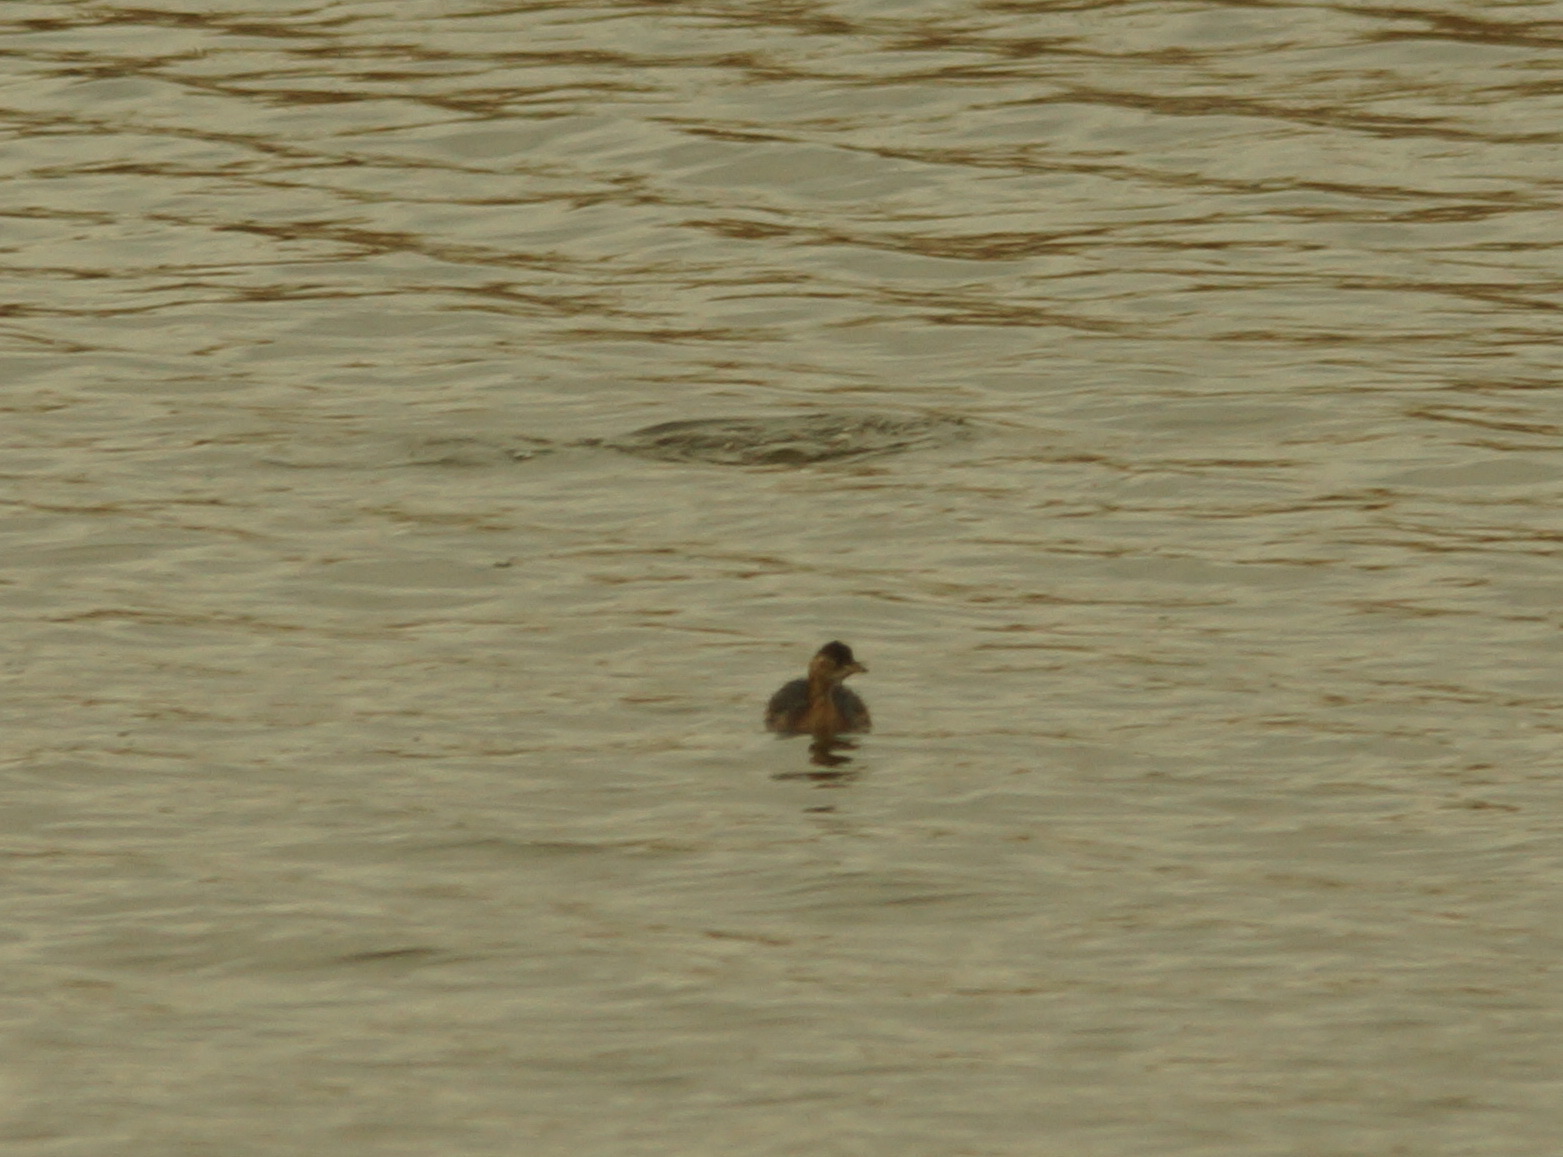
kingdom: Animalia
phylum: Chordata
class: Aves
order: Podicipediformes
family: Podicipedidae
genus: Tachybaptus
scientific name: Tachybaptus ruficollis
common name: Little grebe
